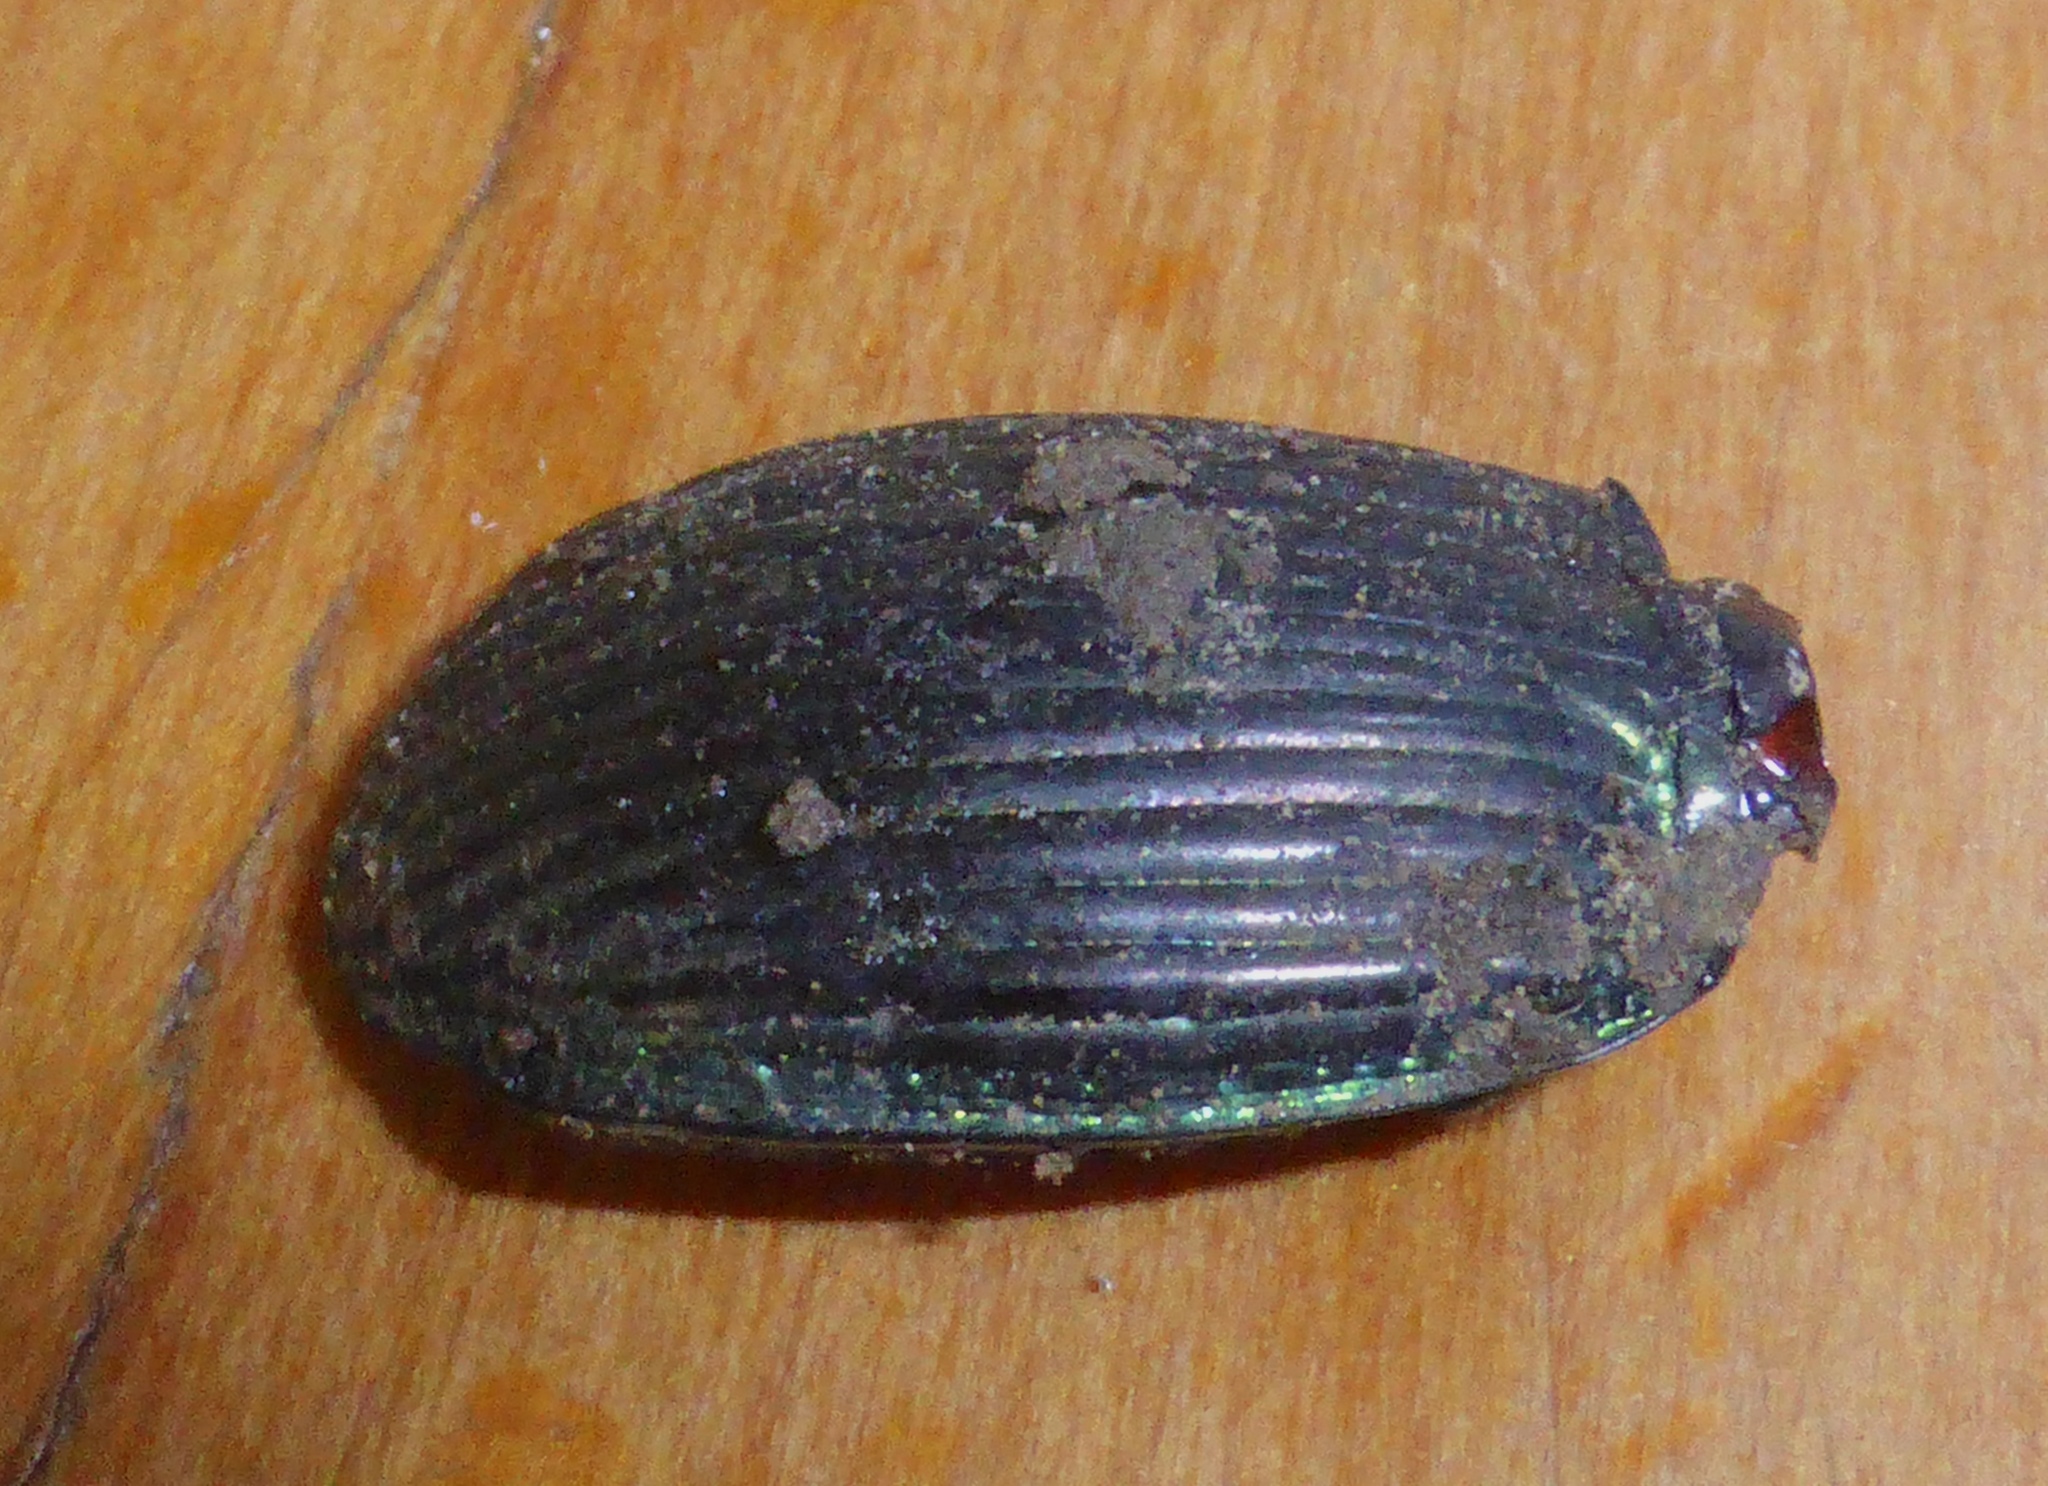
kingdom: Animalia
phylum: Arthropoda
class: Insecta
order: Coleoptera
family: Carabidae
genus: Megadromus
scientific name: Megadromus antarcticus
